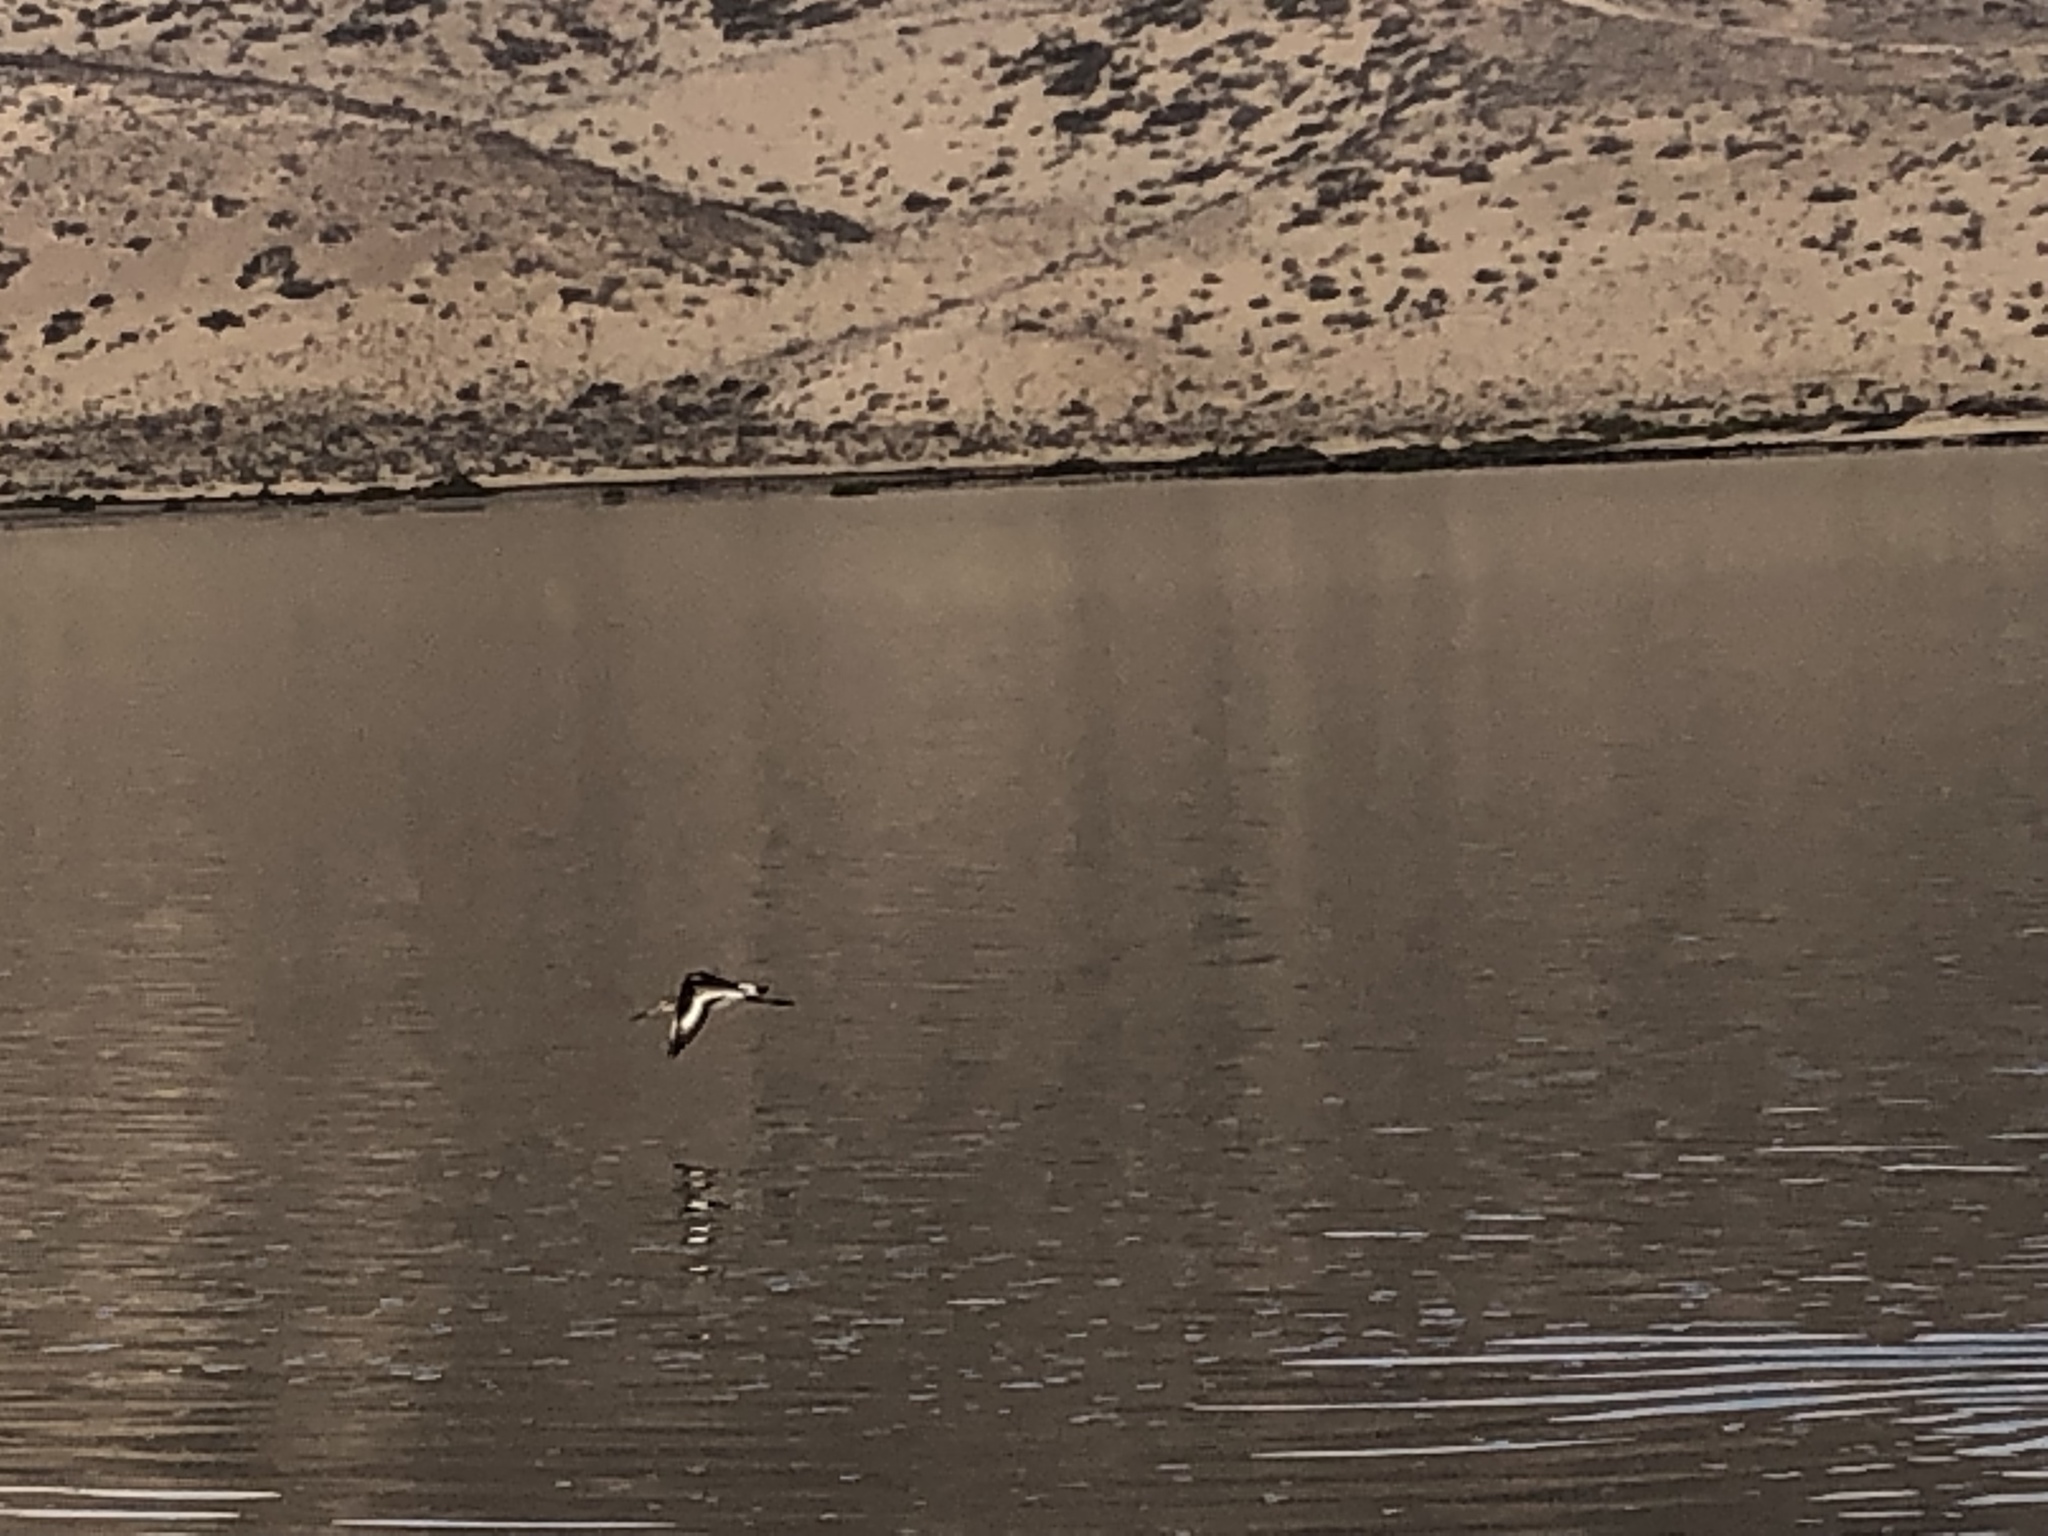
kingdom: Animalia
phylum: Chordata
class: Aves
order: Charadriiformes
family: Scolopacidae
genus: Limosa
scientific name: Limosa limosa
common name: Black-tailed godwit
